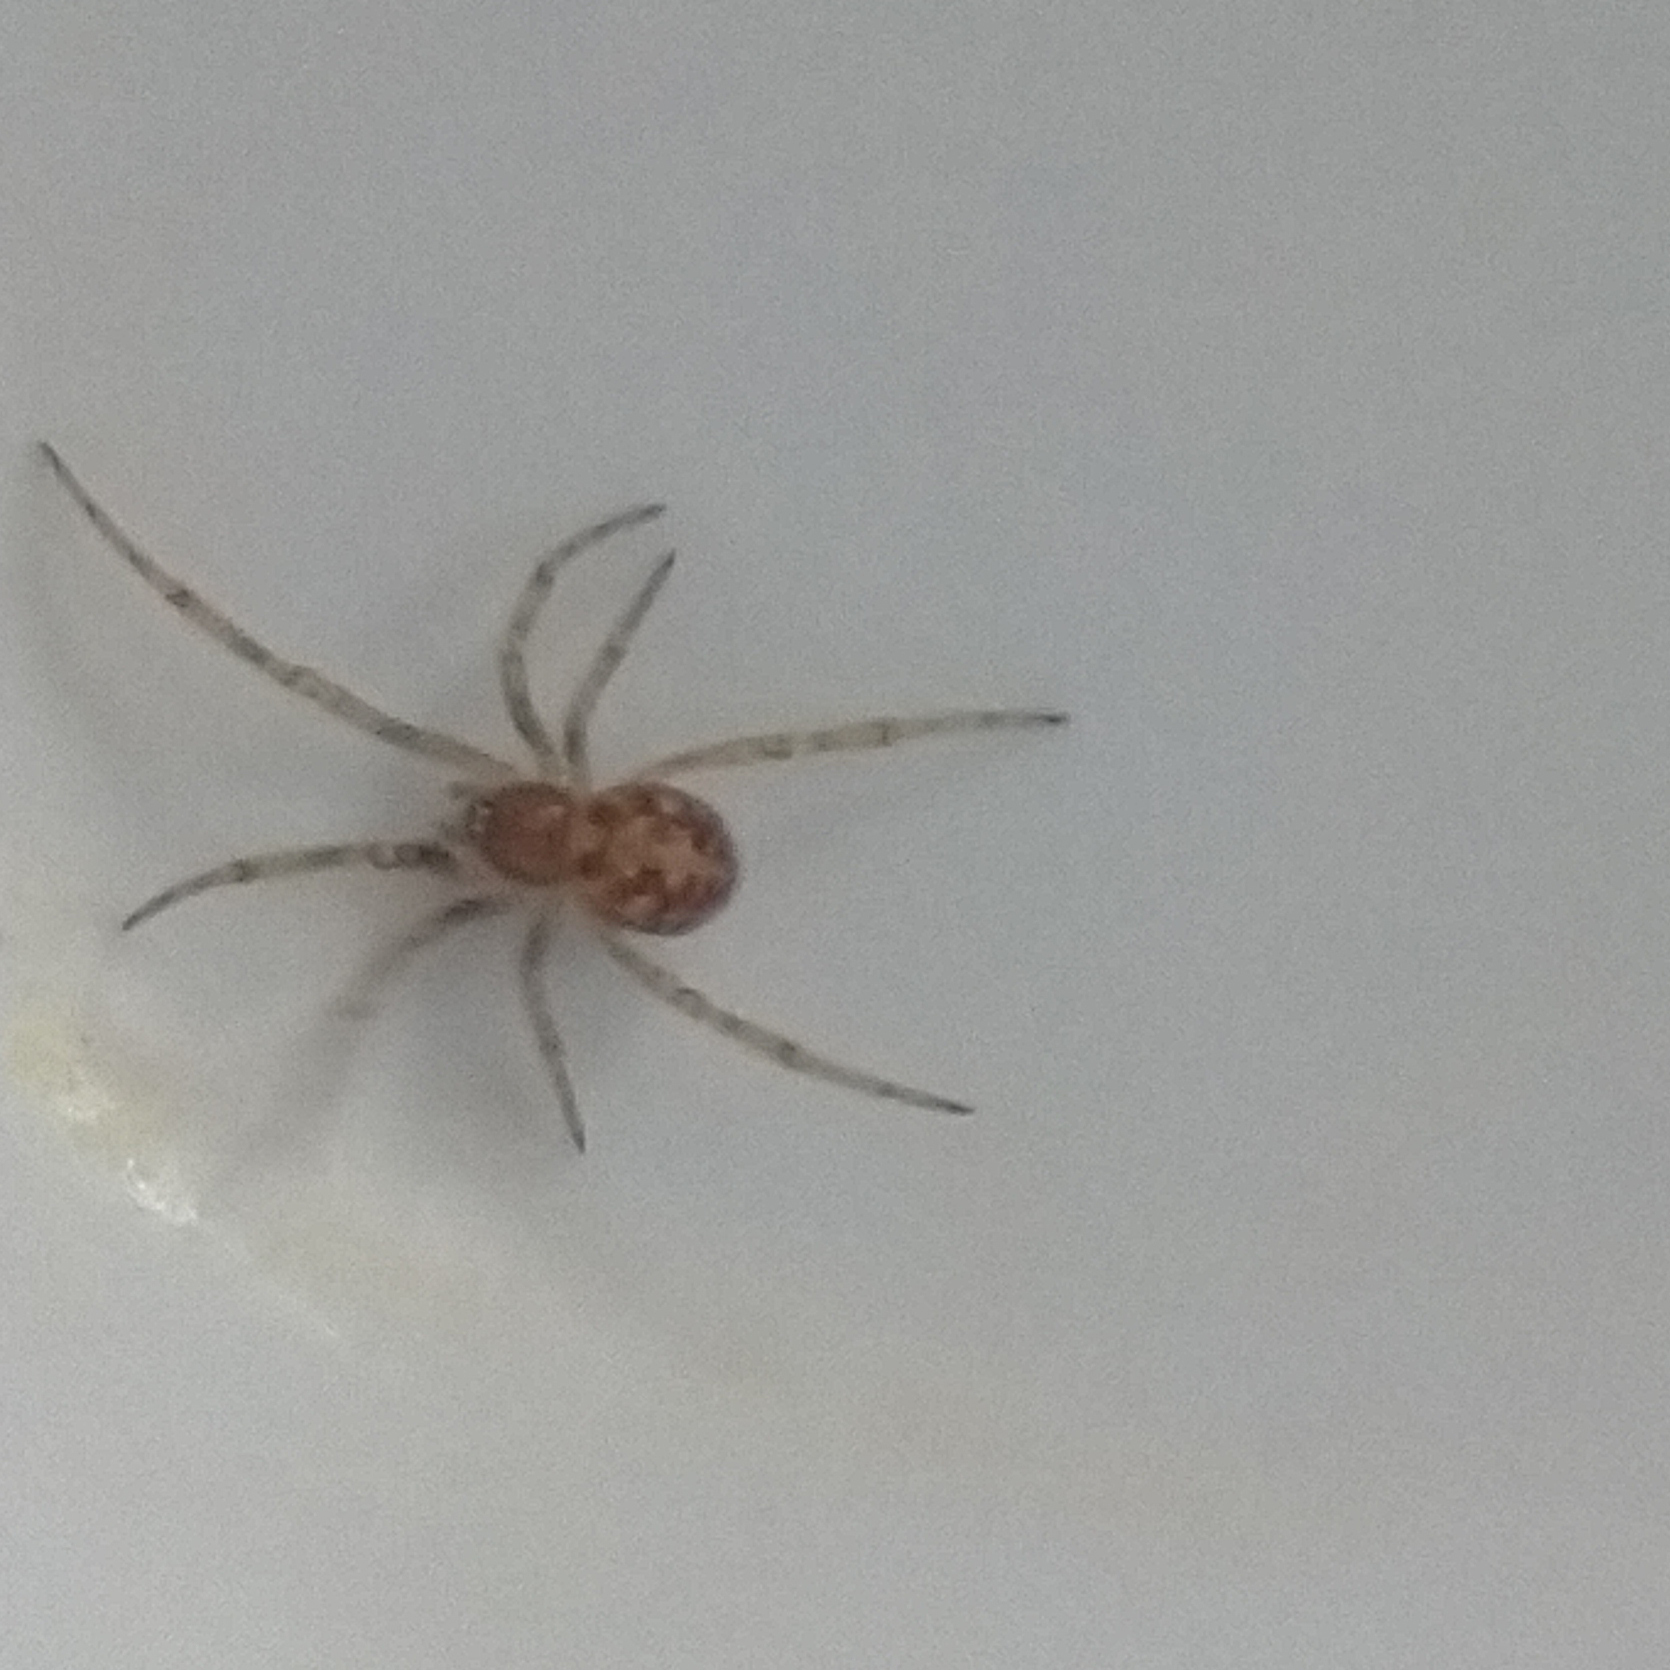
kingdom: Animalia
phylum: Arthropoda
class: Arachnida
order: Araneae
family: Theridiidae
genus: Steatoda
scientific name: Steatoda triangulosa
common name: Triangulate bud spider
